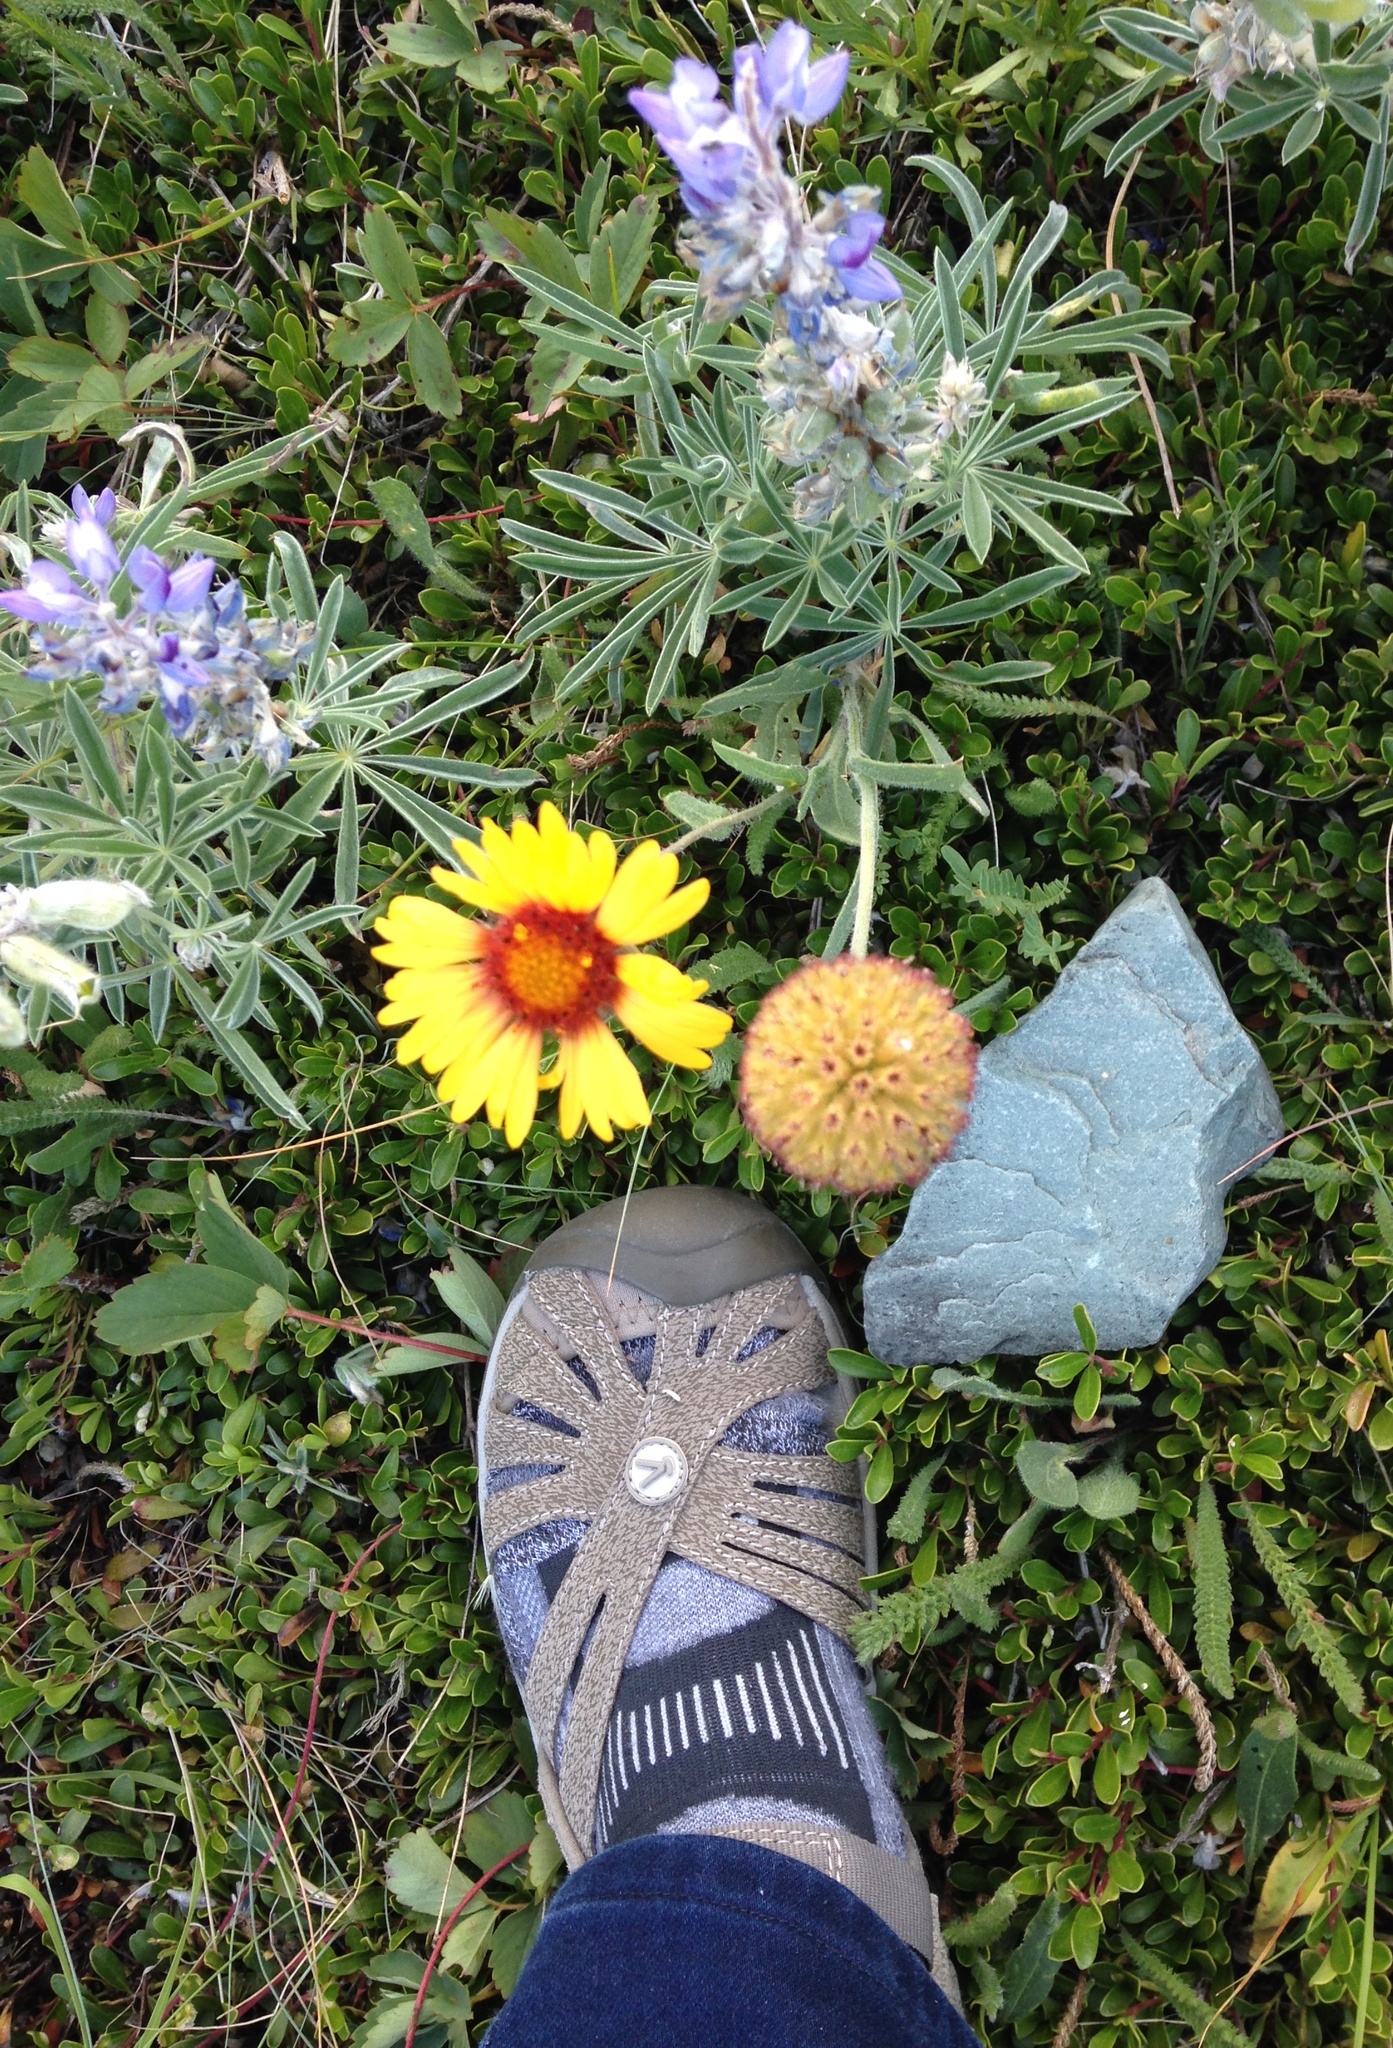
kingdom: Plantae
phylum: Tracheophyta
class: Magnoliopsida
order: Asterales
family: Asteraceae
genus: Gaillardia
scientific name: Gaillardia aristata
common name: Blanket-flower
